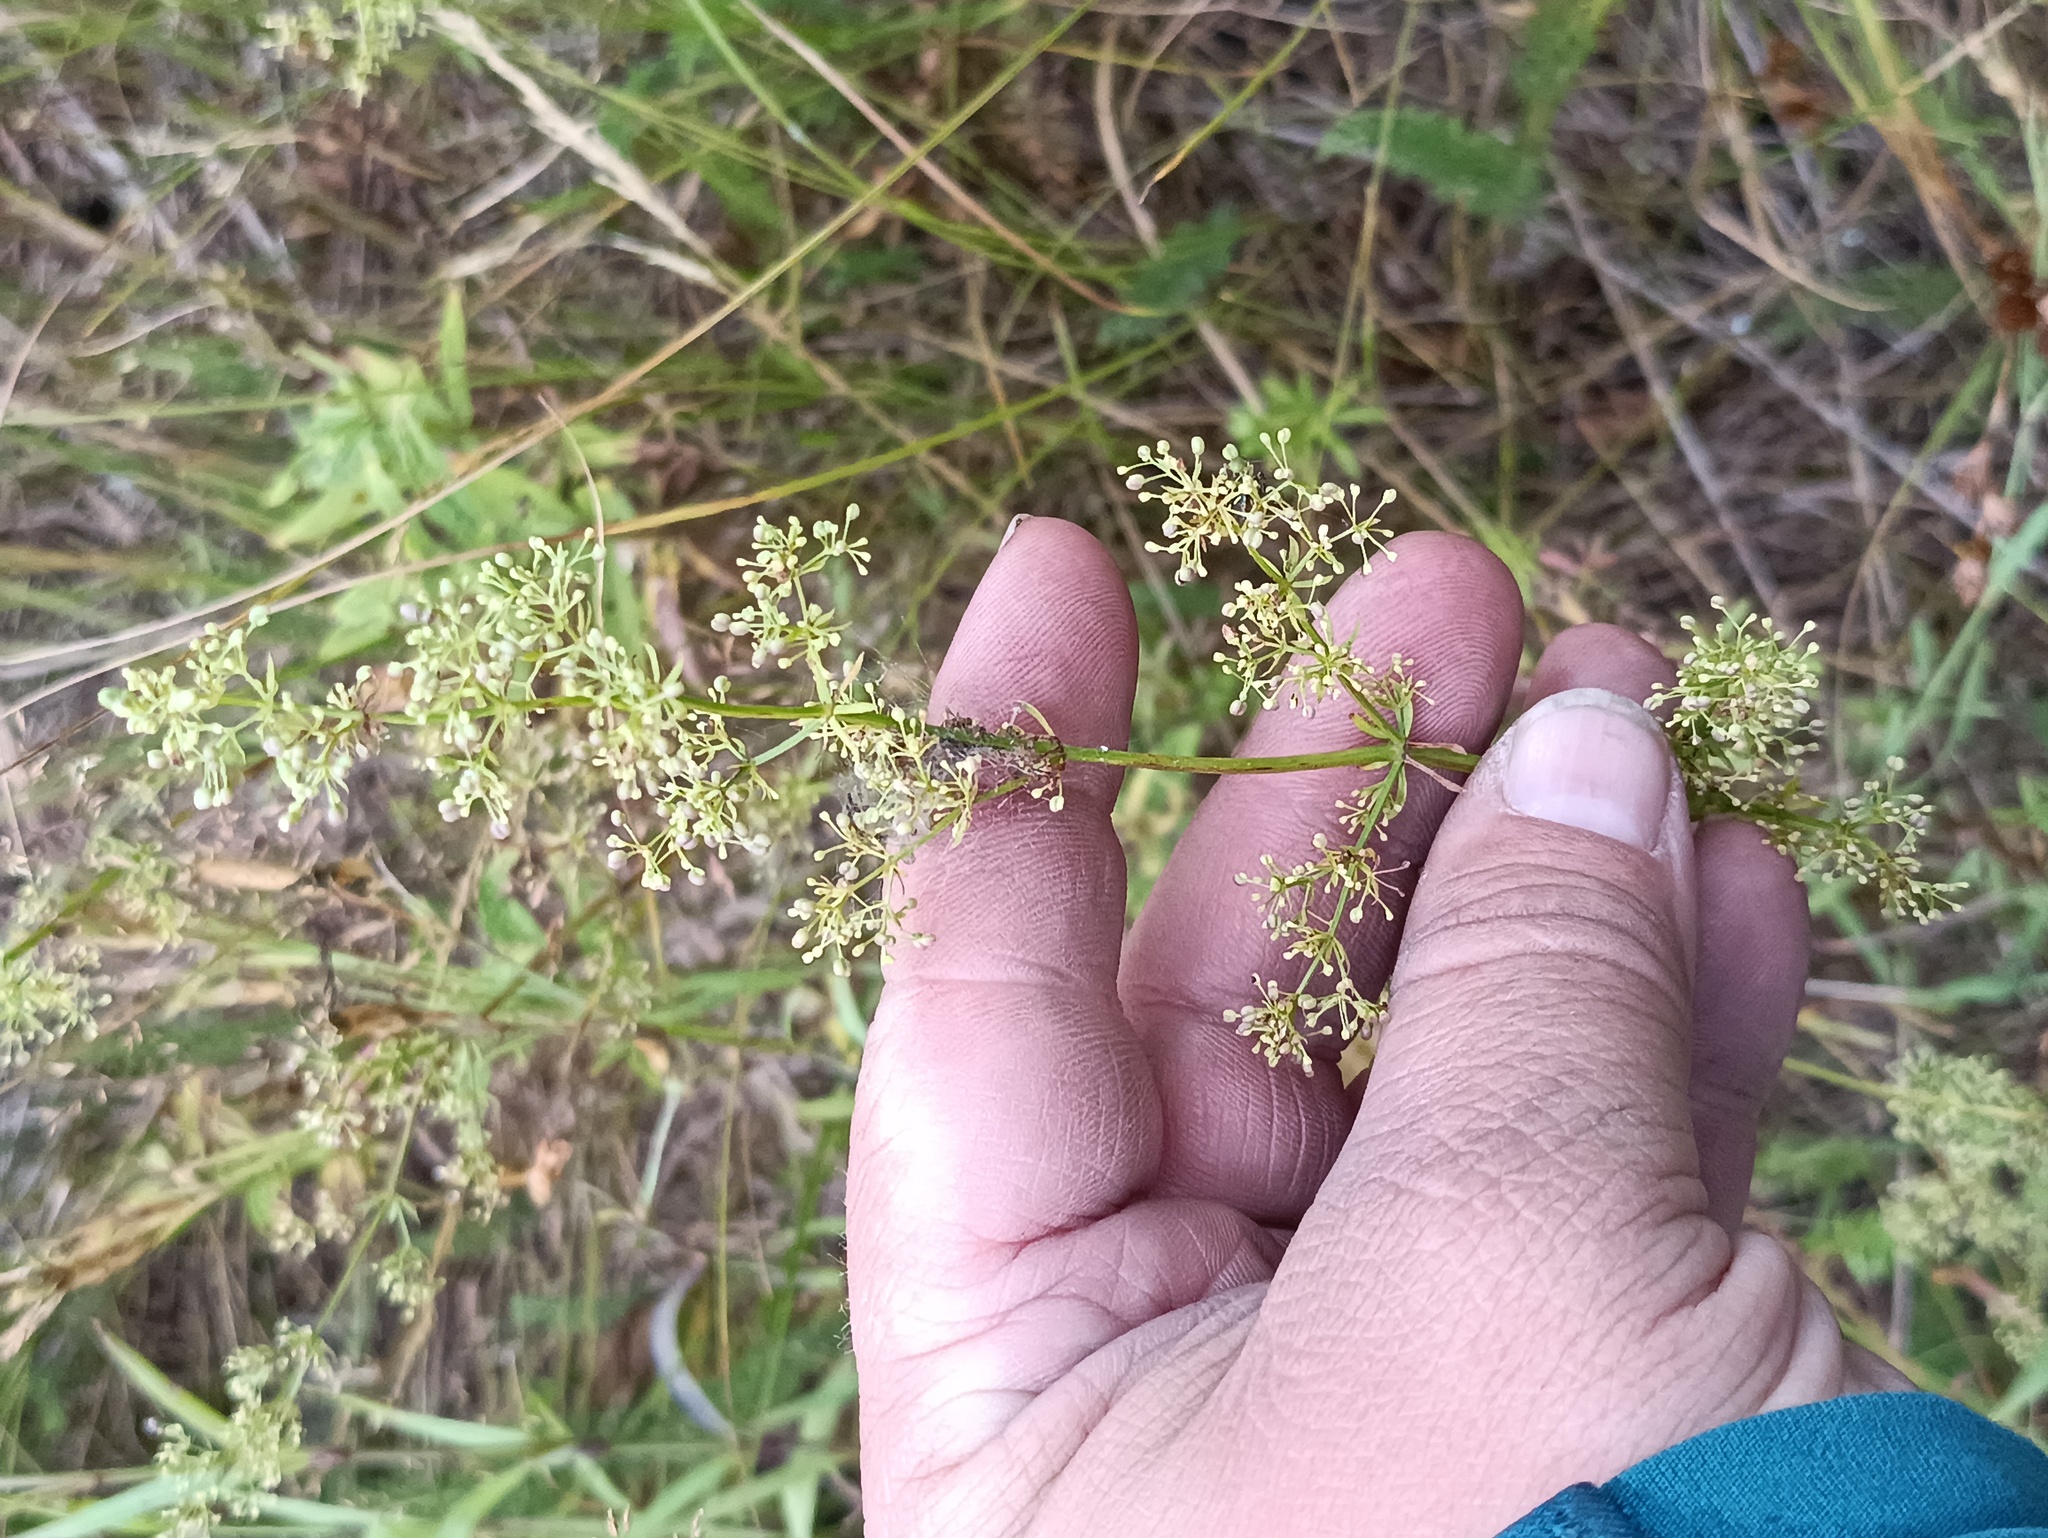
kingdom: Plantae
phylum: Tracheophyta
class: Magnoliopsida
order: Gentianales
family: Rubiaceae
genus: Galium
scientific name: Galium mollugo
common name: Hedge bedstraw
